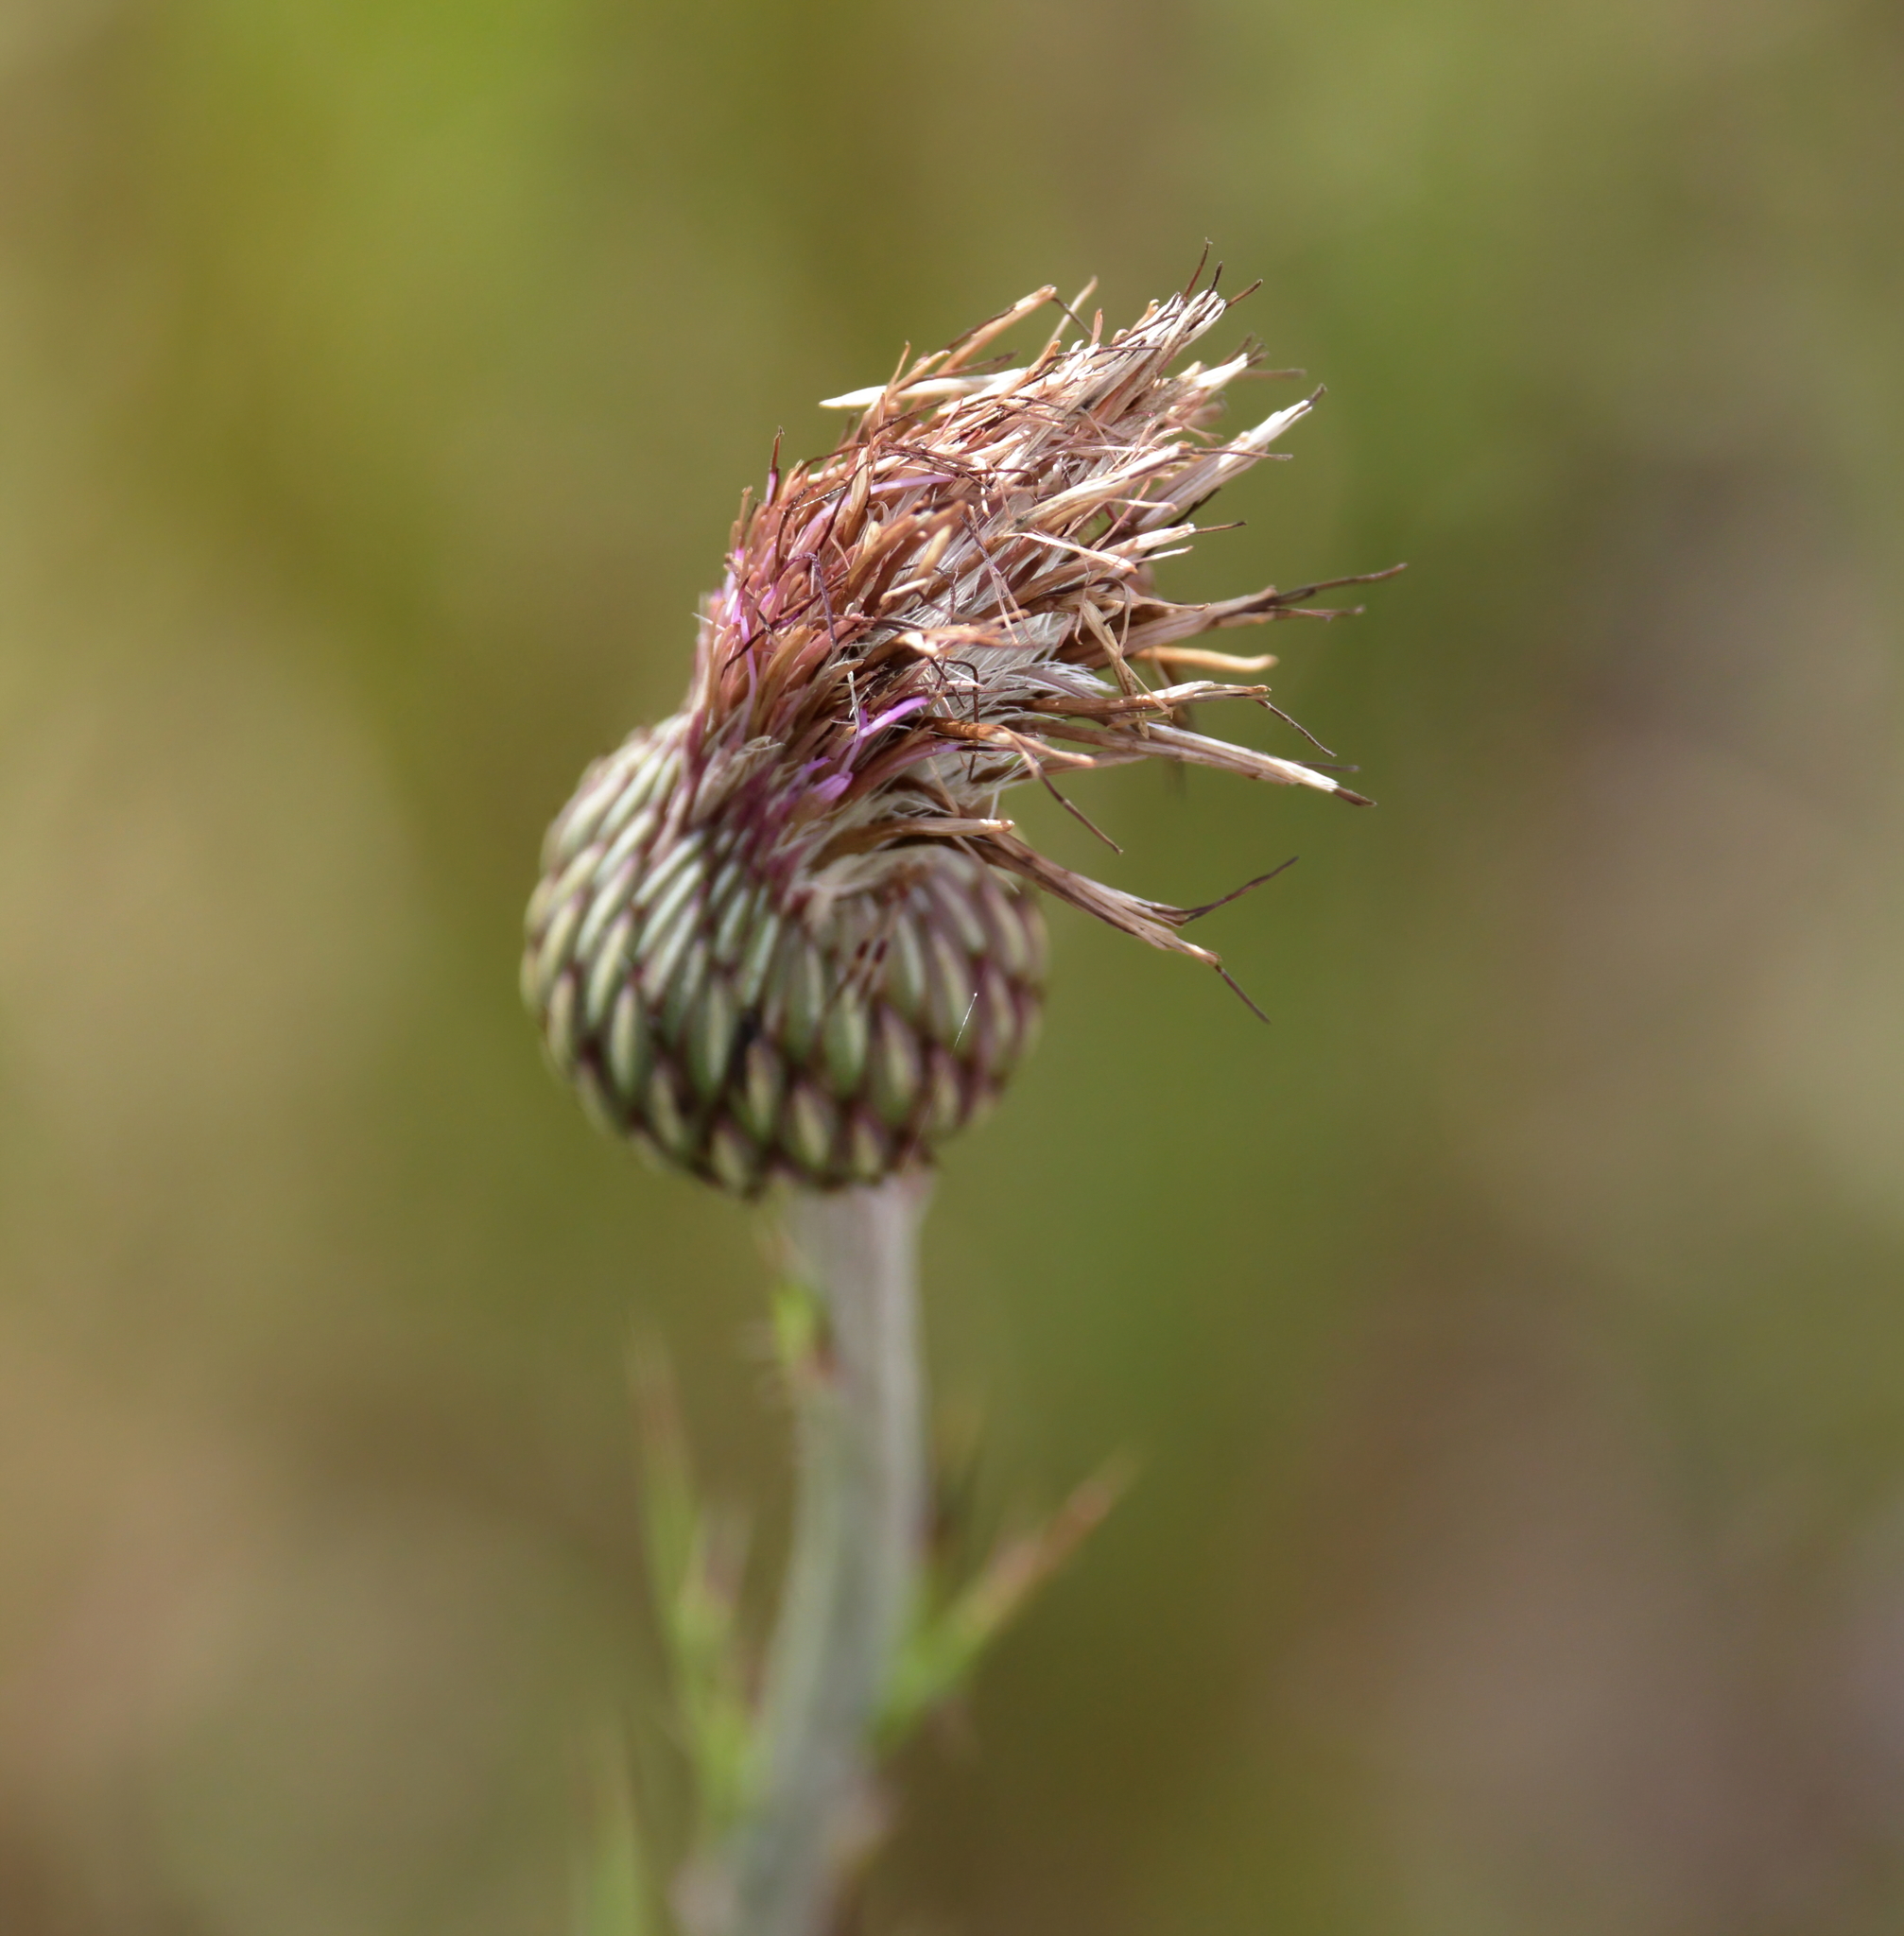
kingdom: Plantae
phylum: Tracheophyta
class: Magnoliopsida
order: Asterales
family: Asteraceae
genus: Cirsium
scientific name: Cirsium lecontei
